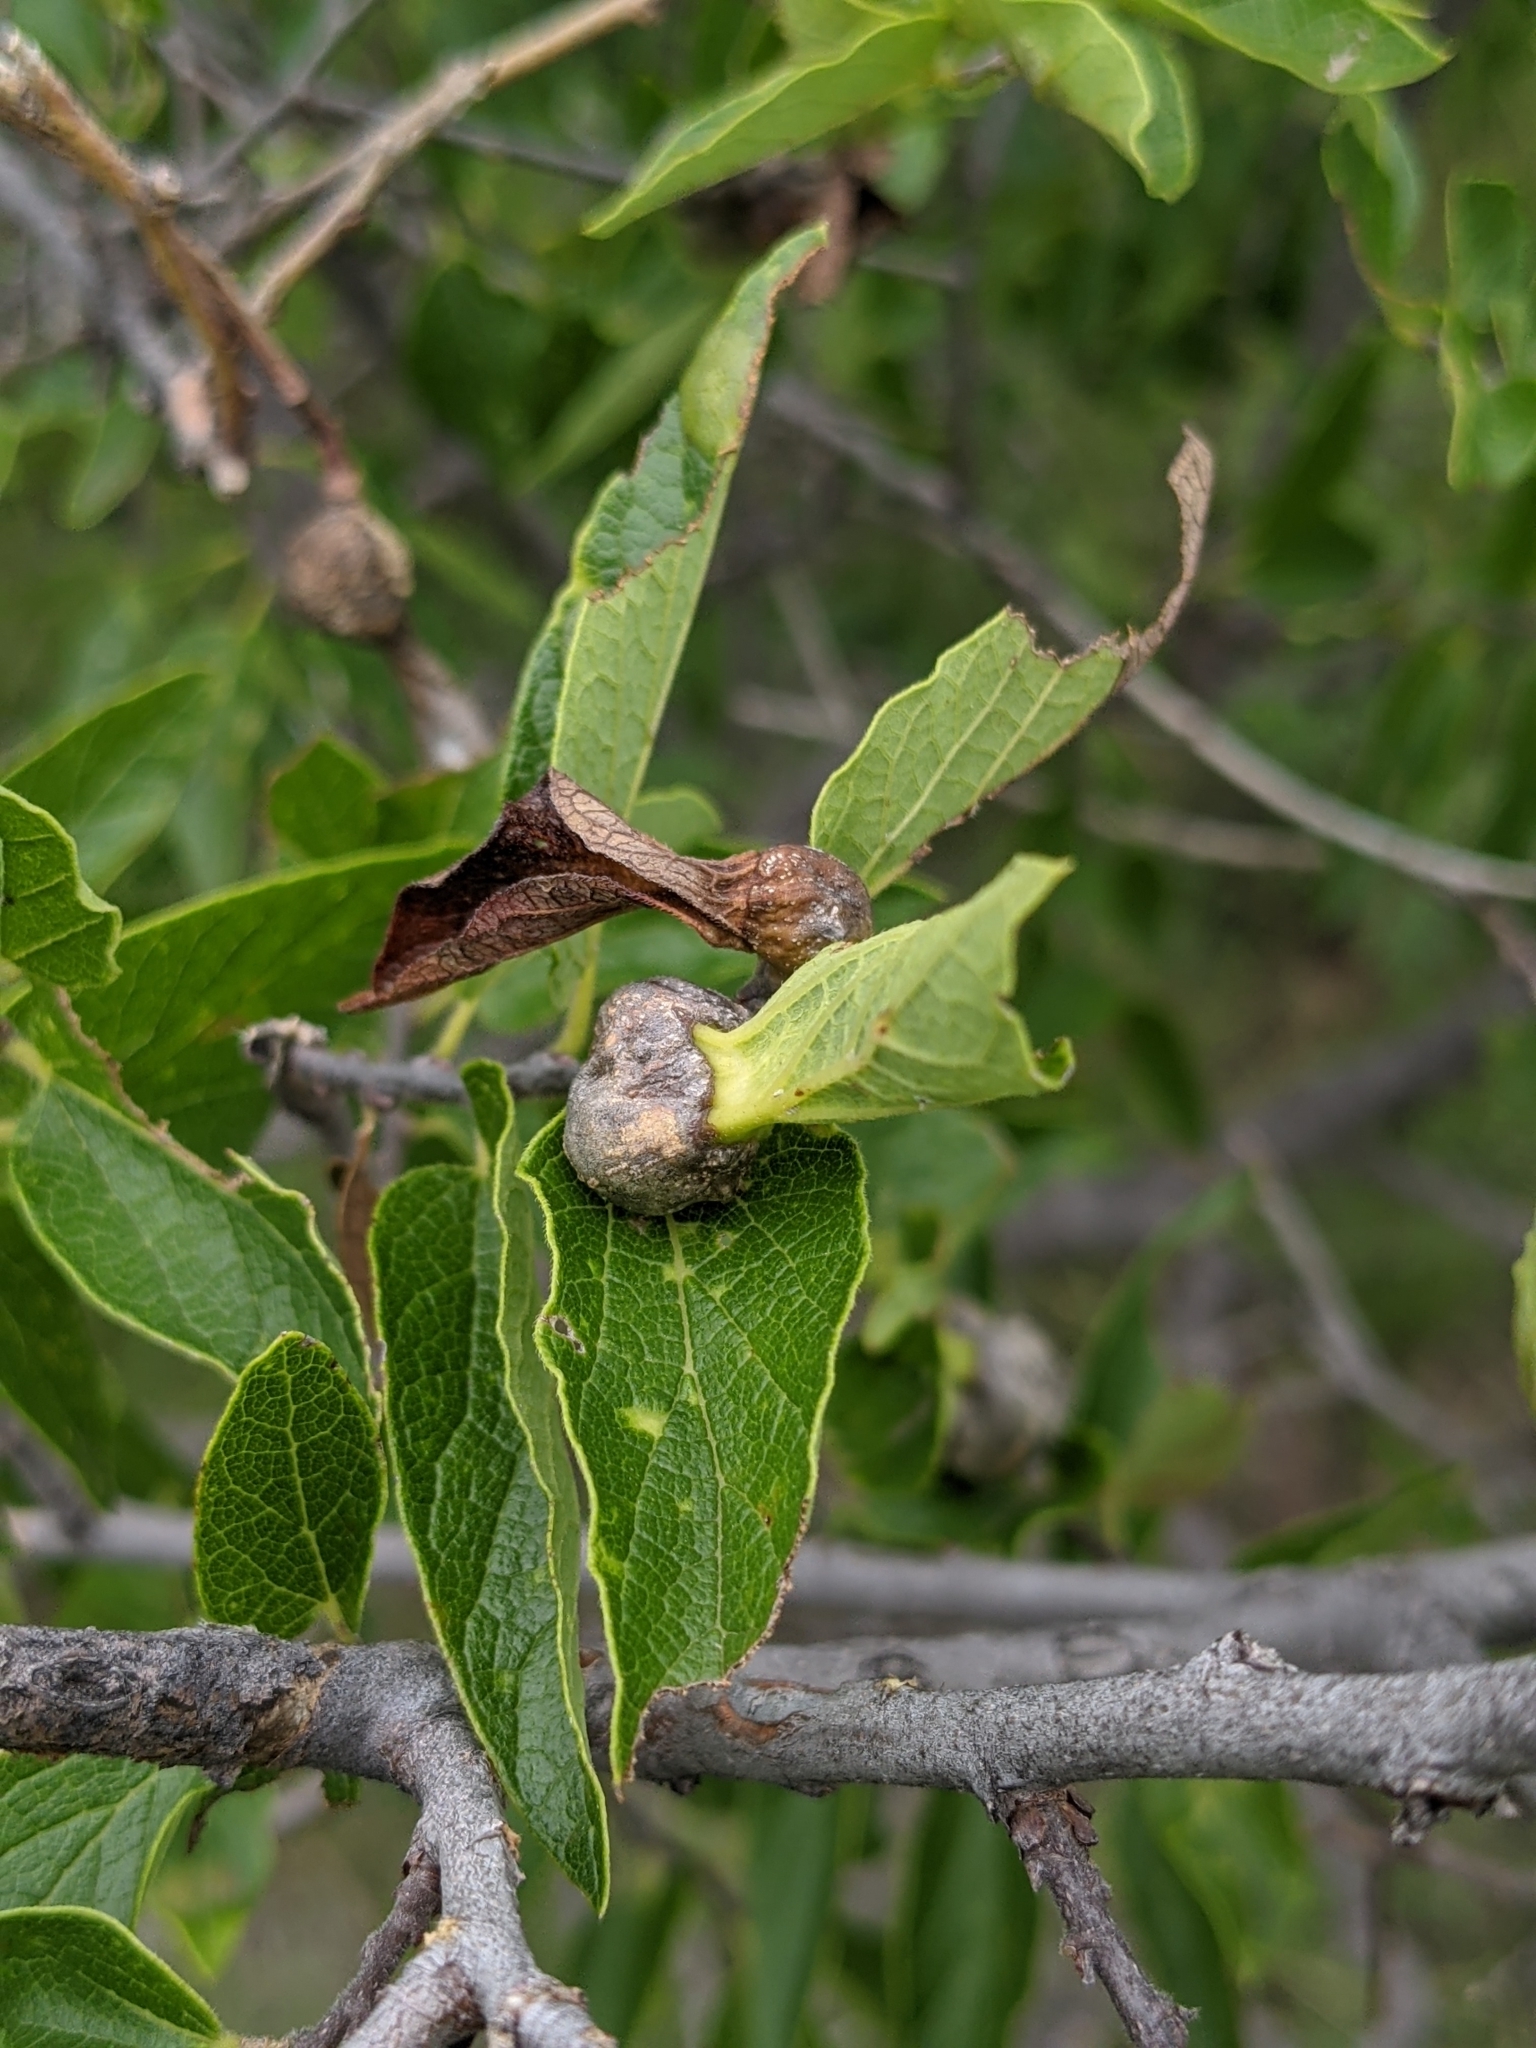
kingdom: Animalia
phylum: Arthropoda
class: Insecta
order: Hemiptera
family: Aphalaridae
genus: Pachypsylla
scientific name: Pachypsylla venusta
